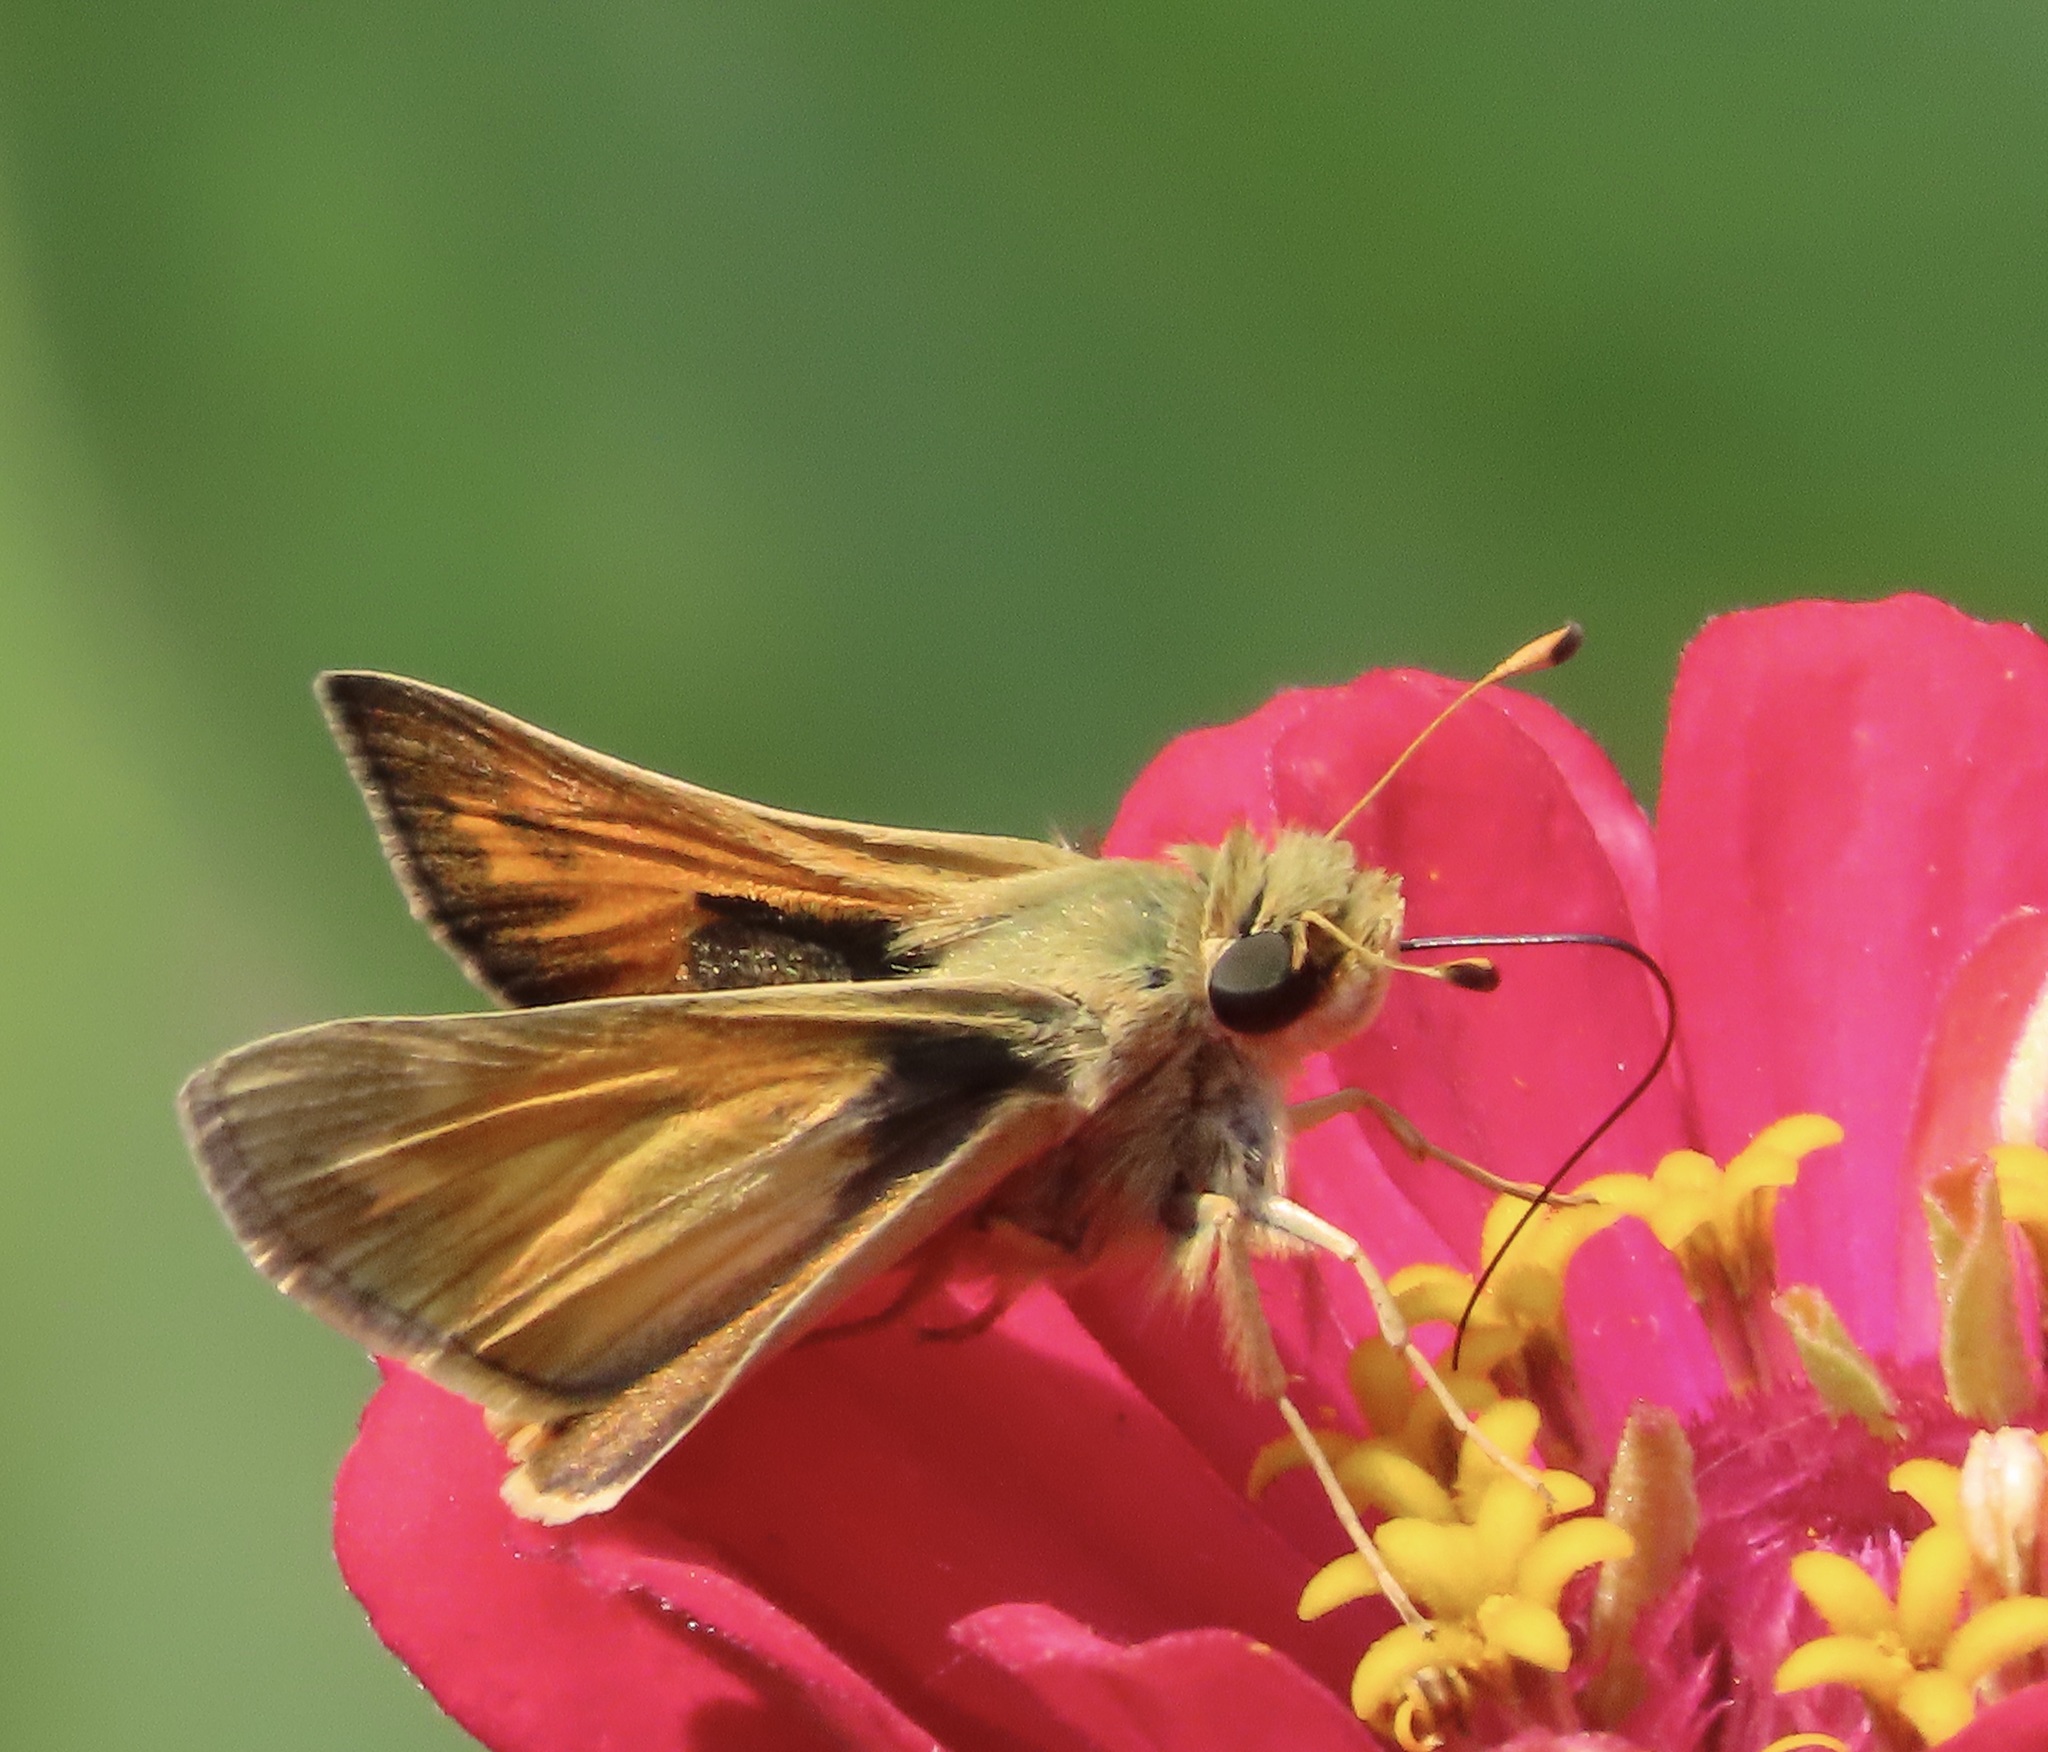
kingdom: Animalia
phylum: Arthropoda
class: Insecta
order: Lepidoptera
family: Hesperiidae
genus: Atalopedes
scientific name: Atalopedes campestris
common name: Sachem
